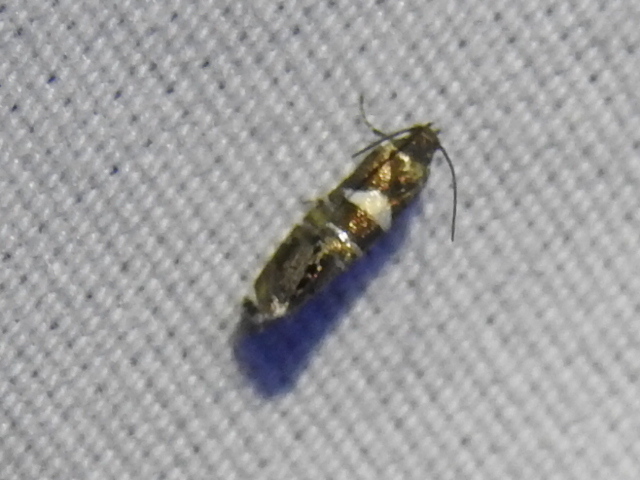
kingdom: Animalia
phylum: Arthropoda
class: Insecta
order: Lepidoptera
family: Glyphipterigidae
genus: Glyphipterix
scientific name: Glyphipterix circumscriptella
